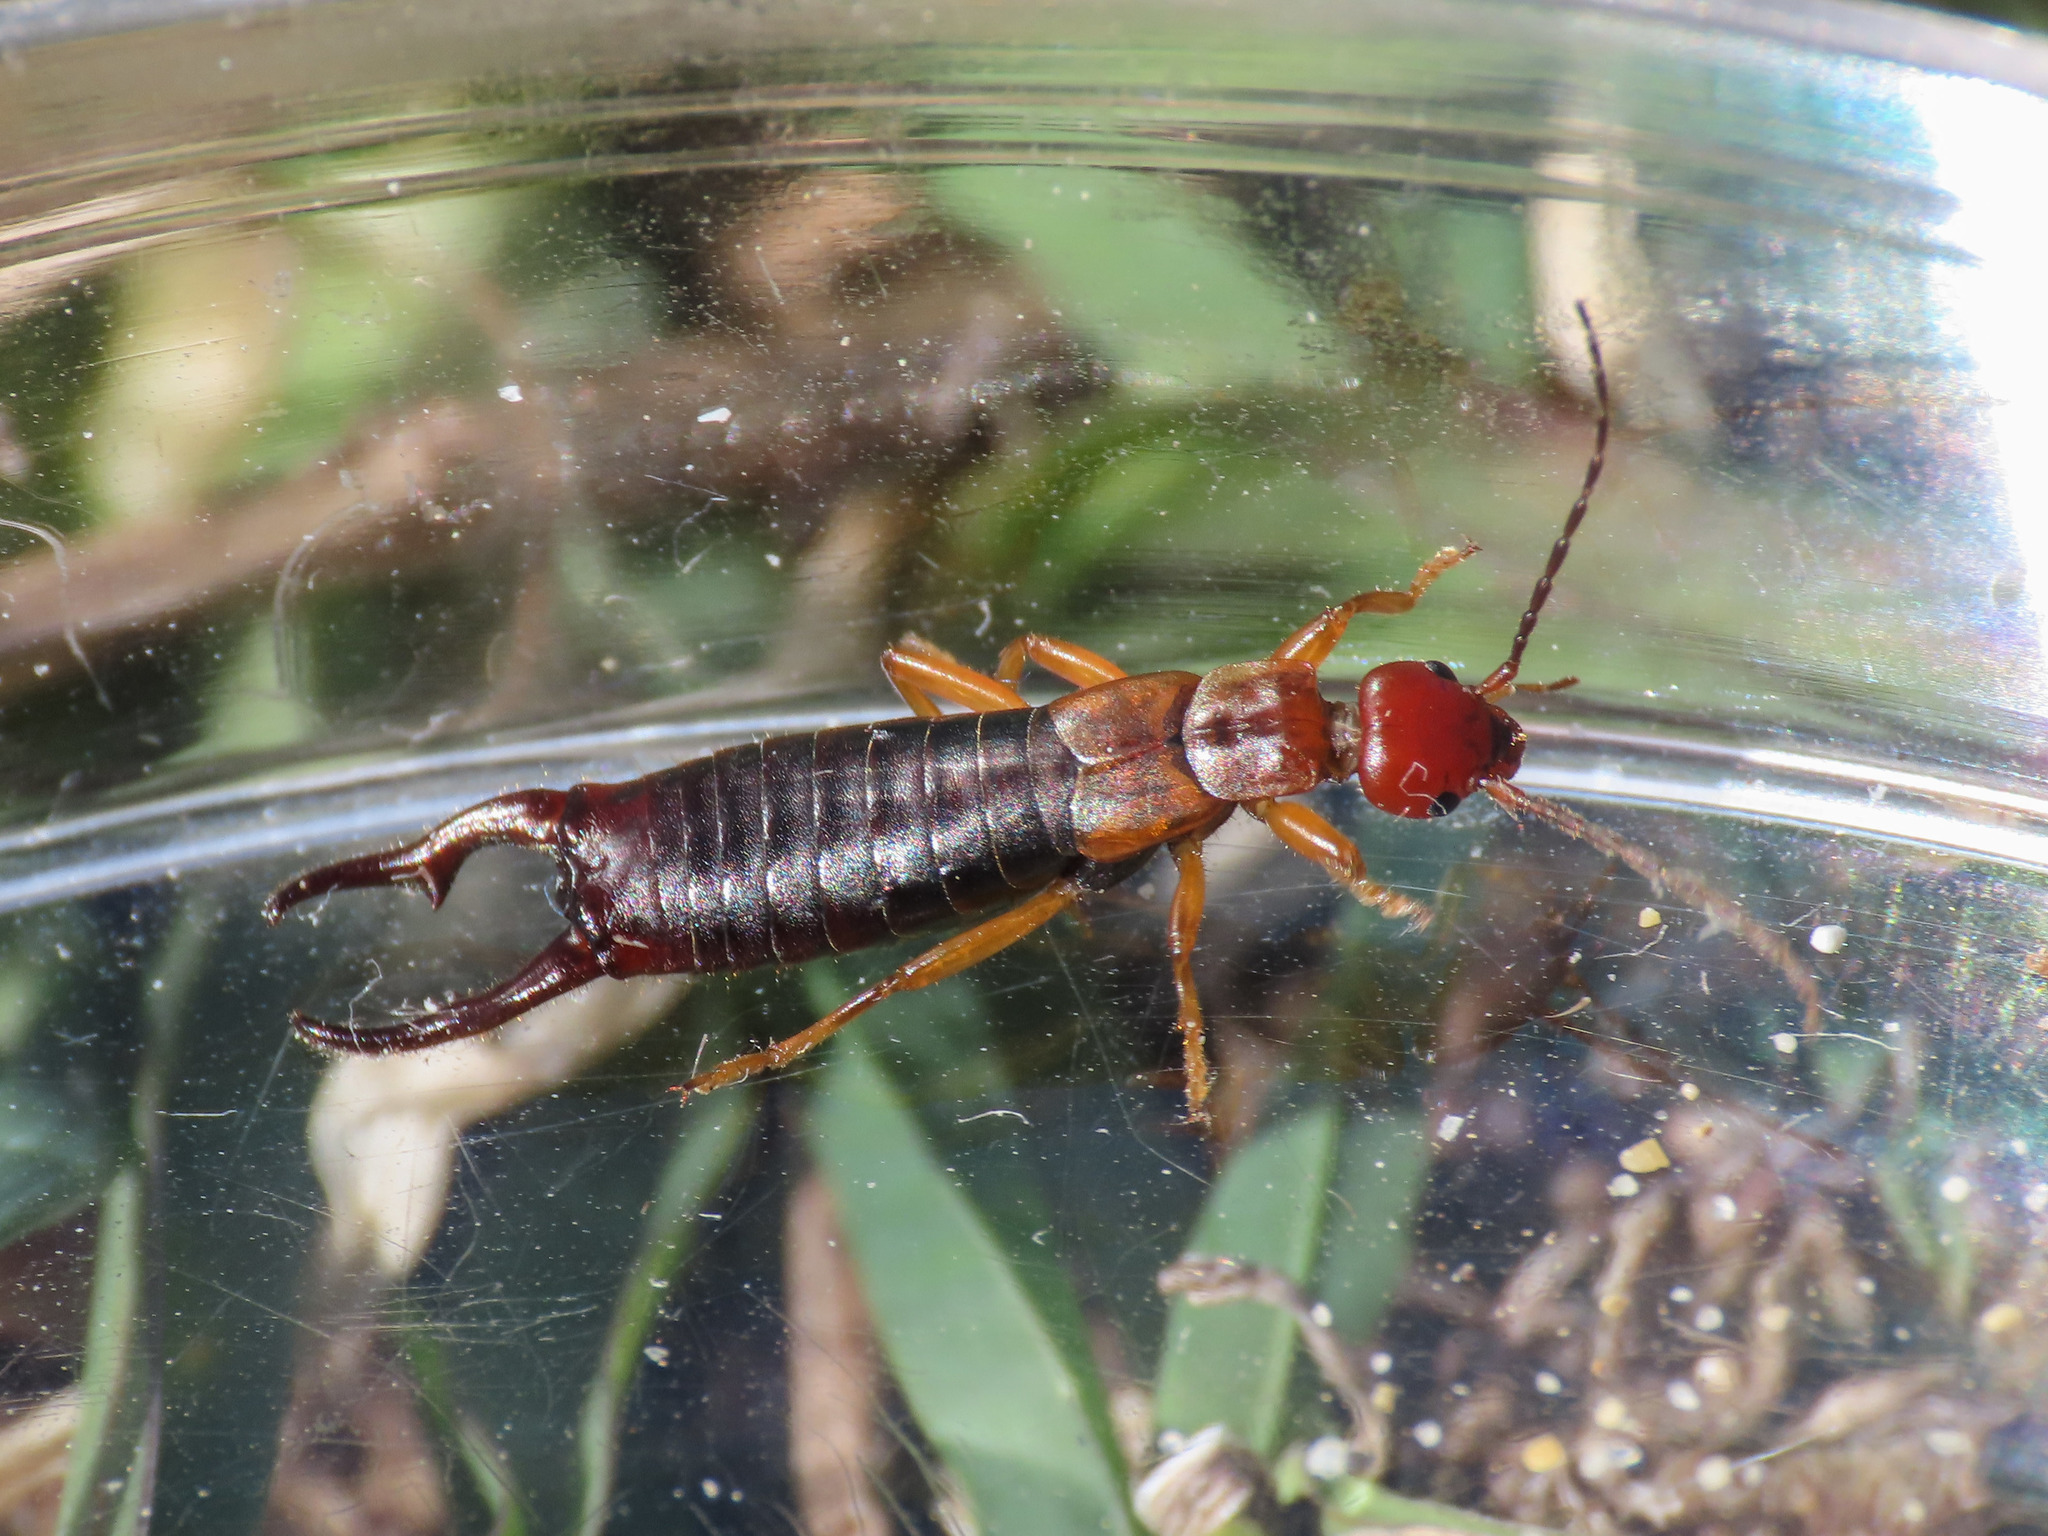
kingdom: Animalia
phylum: Arthropoda
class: Insecta
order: Dermaptera
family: Forficulidae
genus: Pseudochelidura
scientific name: Pseudochelidura orsinii
